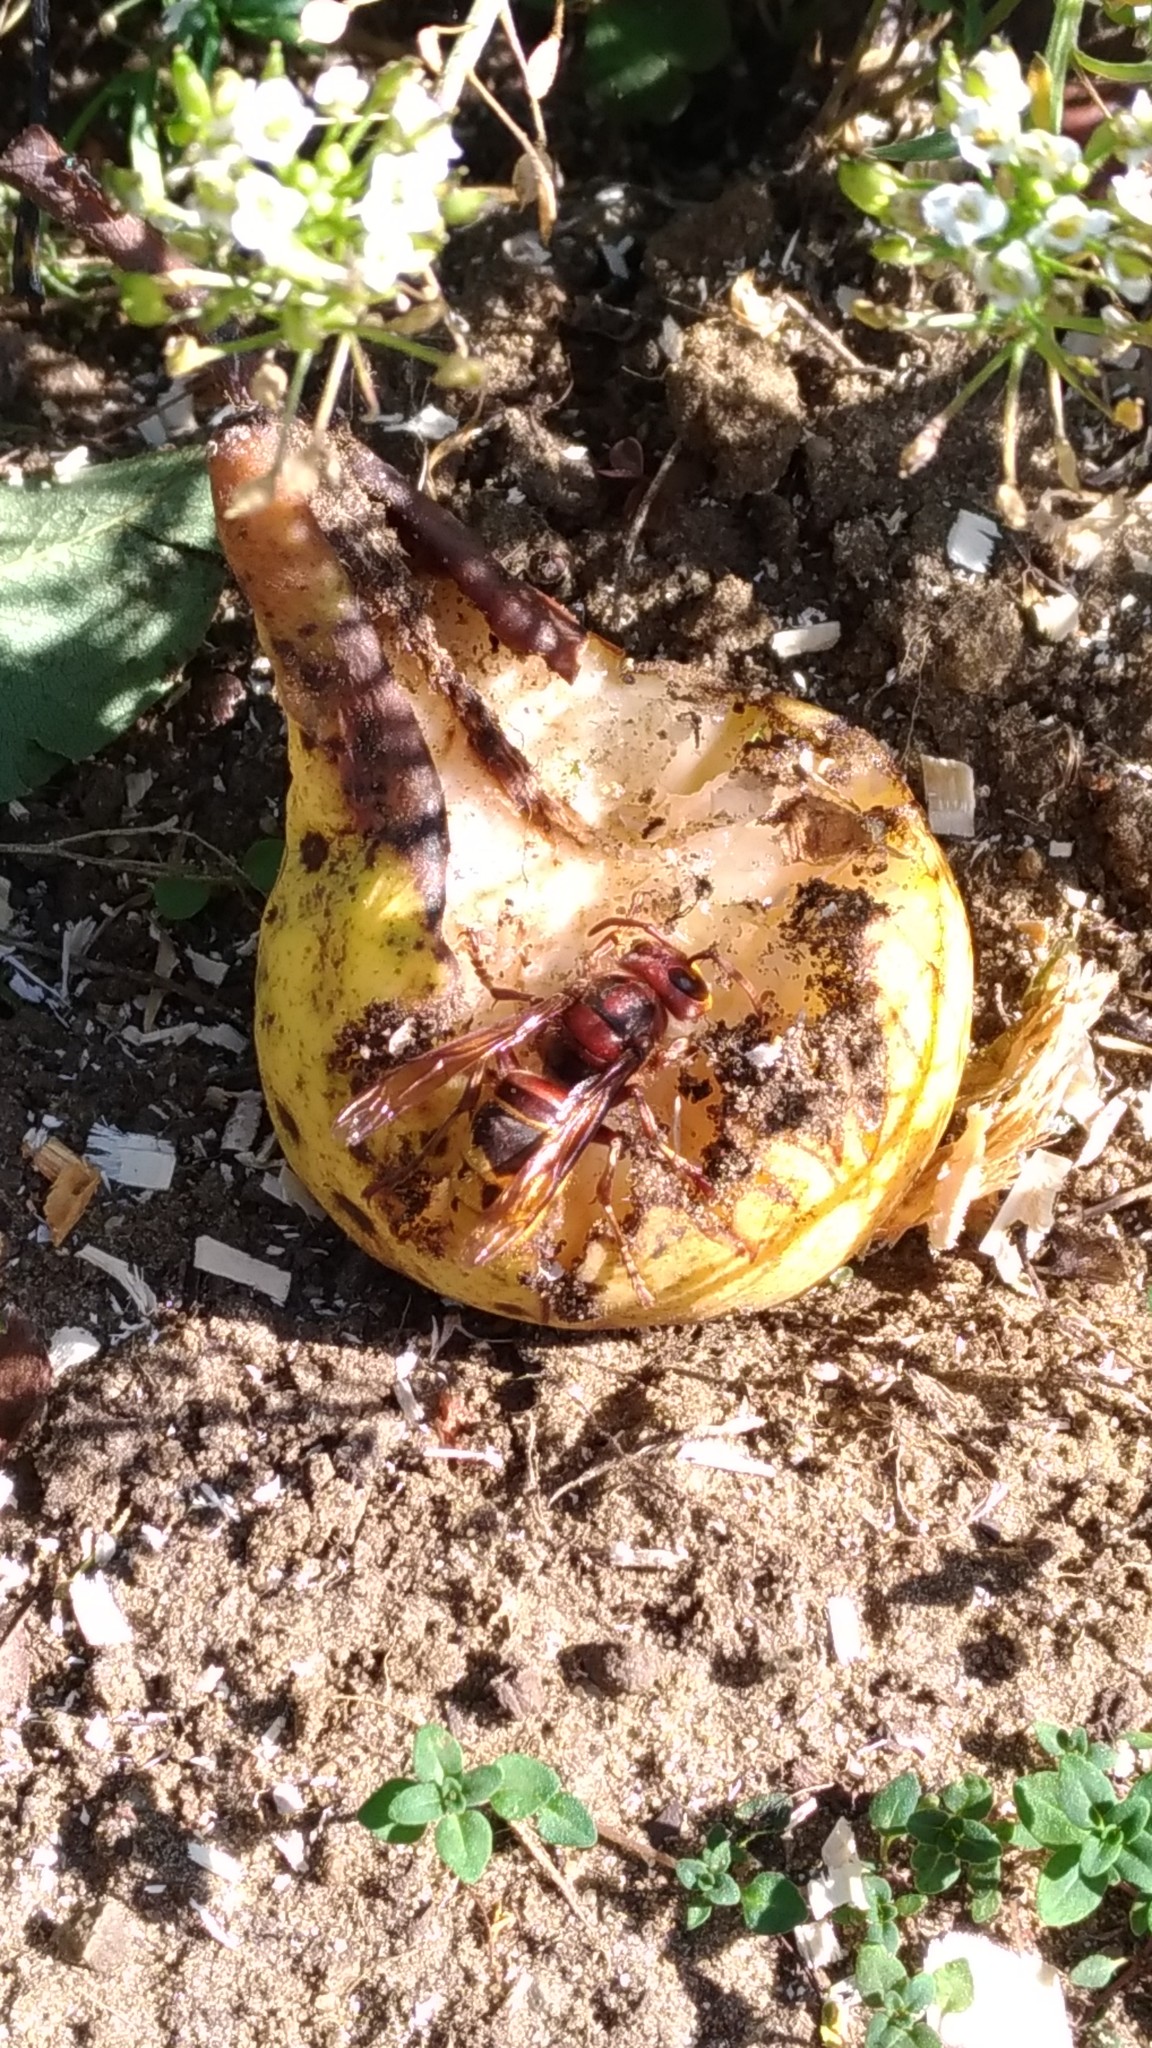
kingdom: Animalia
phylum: Arthropoda
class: Insecta
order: Hymenoptera
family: Vespidae
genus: Vespa
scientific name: Vespa crabro
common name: Hornet
